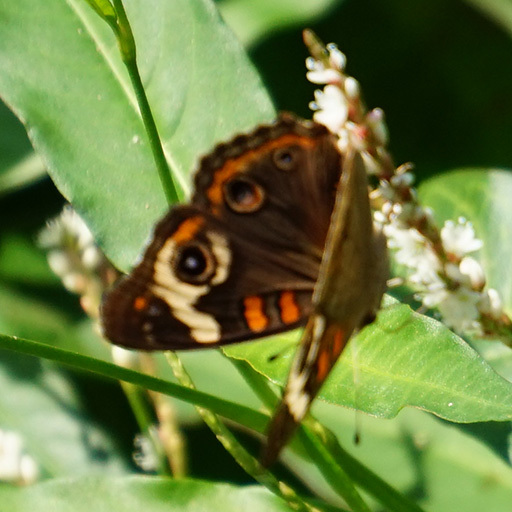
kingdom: Animalia
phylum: Arthropoda
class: Insecta
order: Lepidoptera
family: Nymphalidae
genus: Junonia
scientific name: Junonia coenia
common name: Common buckeye
